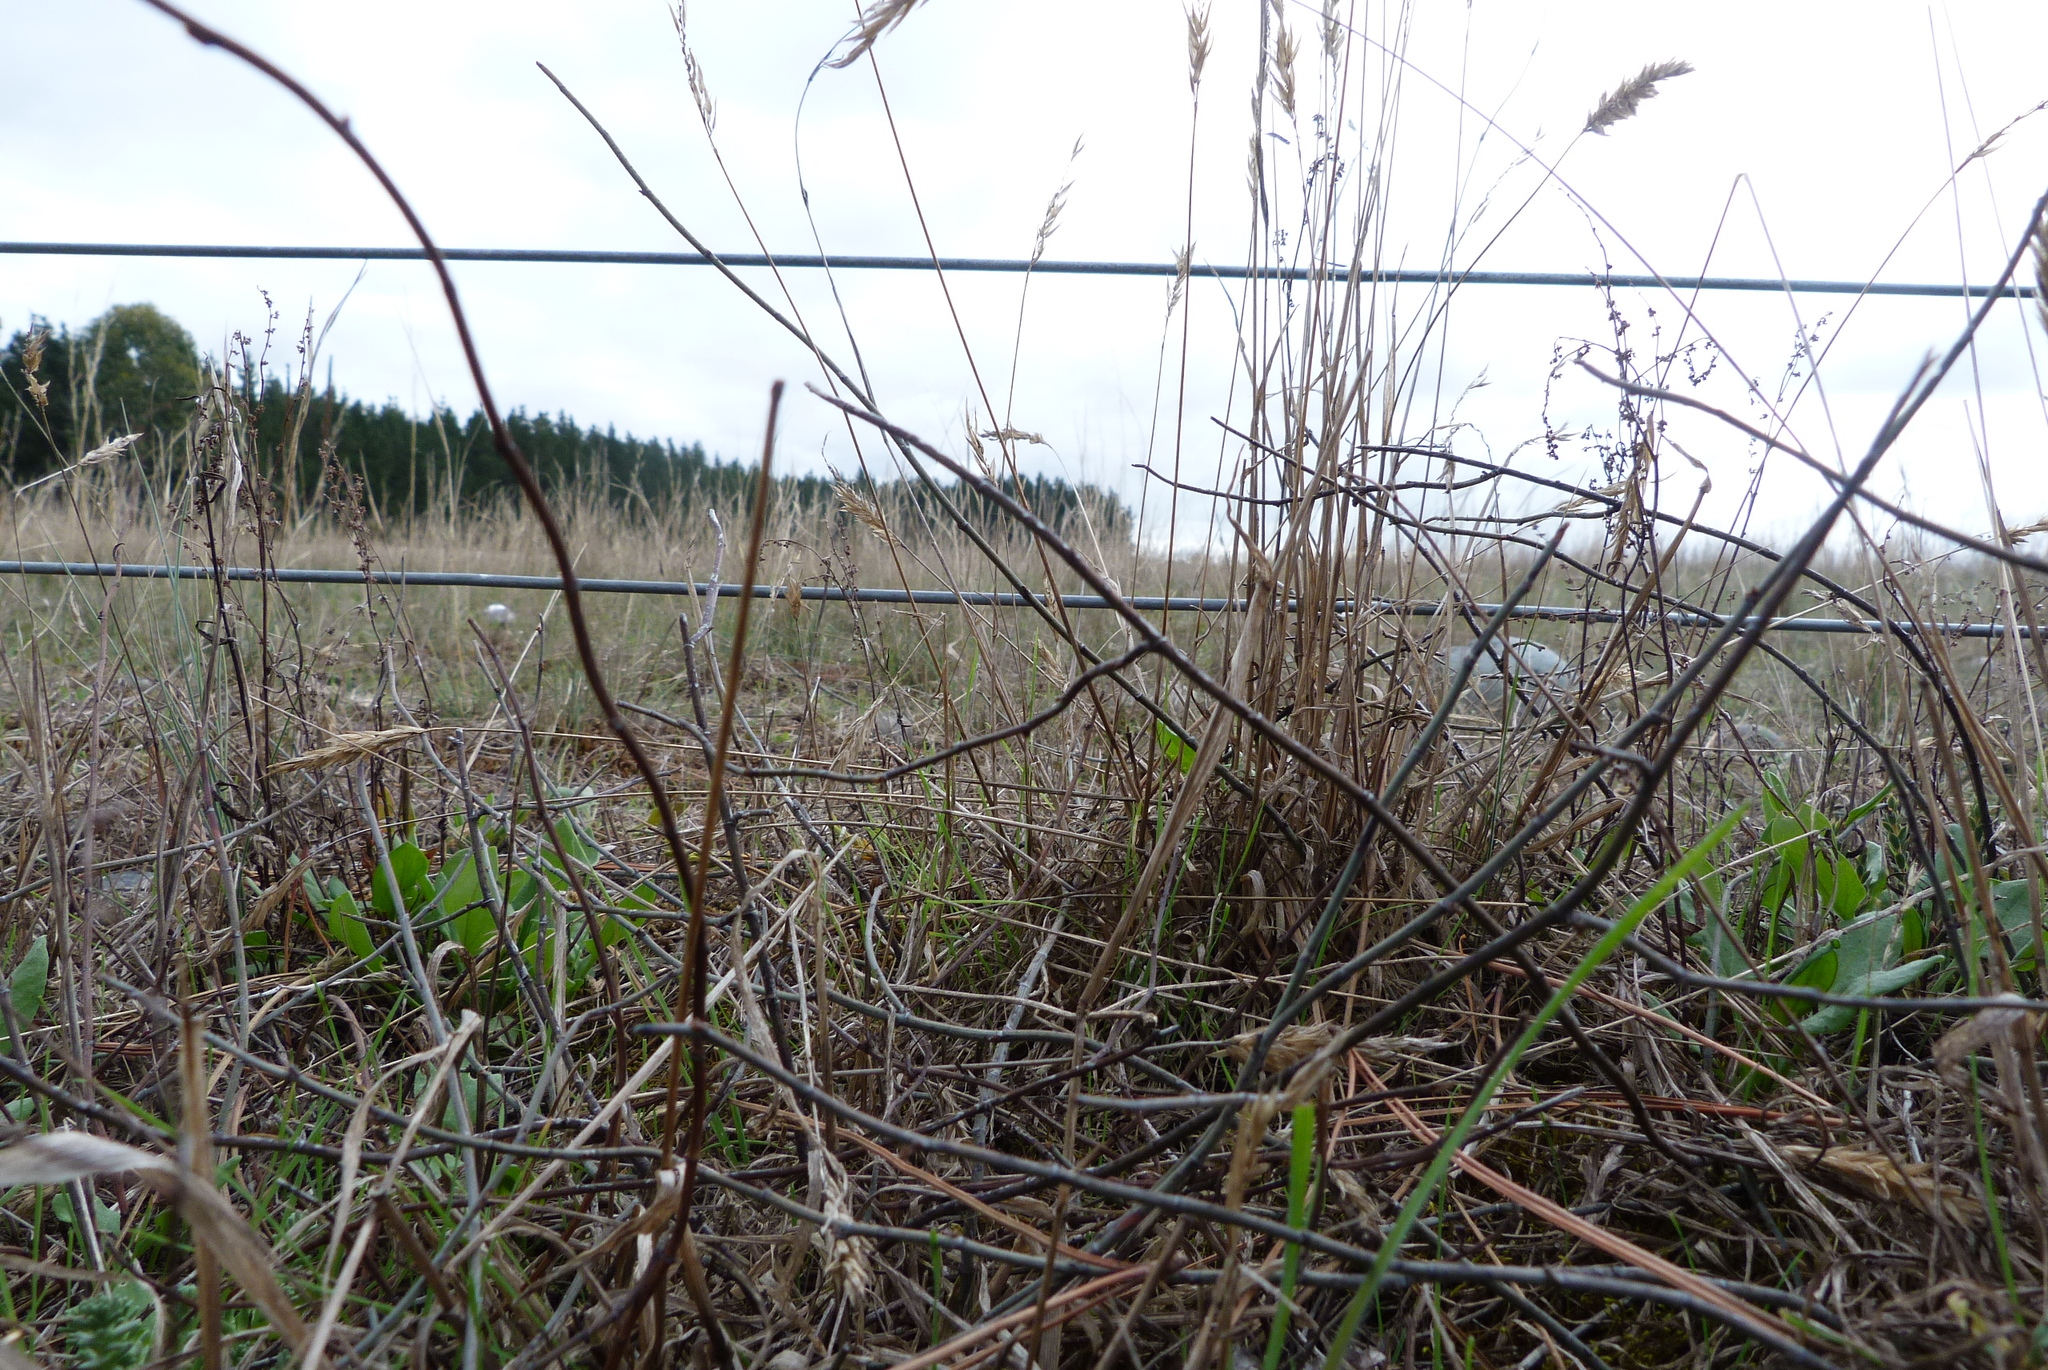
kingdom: Plantae
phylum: Tracheophyta
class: Magnoliopsida
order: Caryophyllales
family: Polygonaceae
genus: Muehlenbeckia
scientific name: Muehlenbeckia ephedroides
